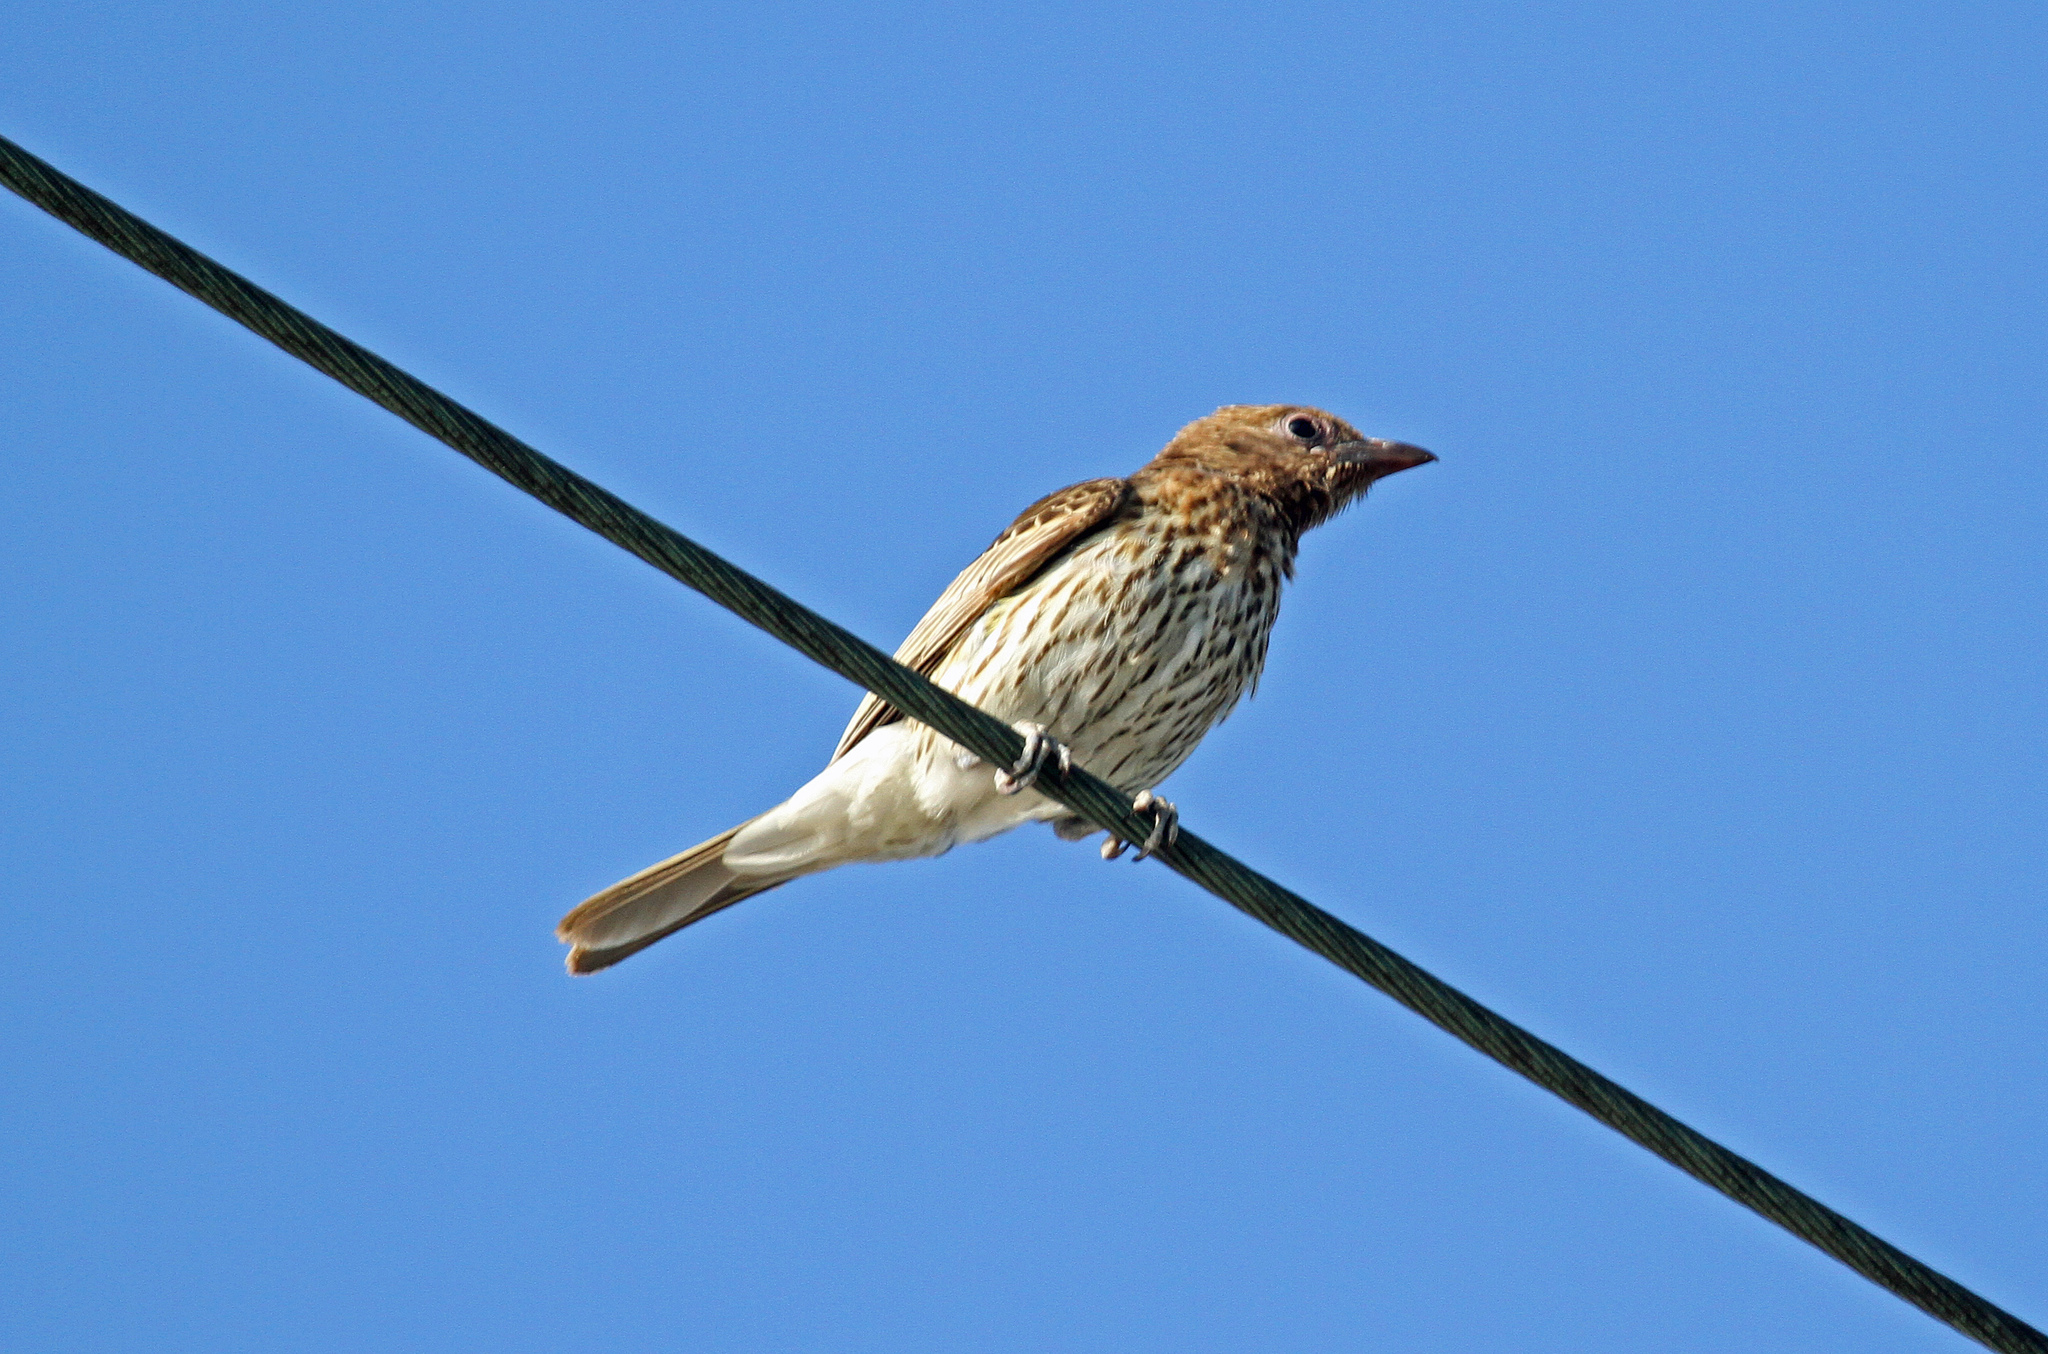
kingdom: Animalia
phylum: Chordata
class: Aves
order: Passeriformes
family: Oriolidae
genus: Sphecotheres
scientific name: Sphecotheres vieilloti
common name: Australasian figbird
